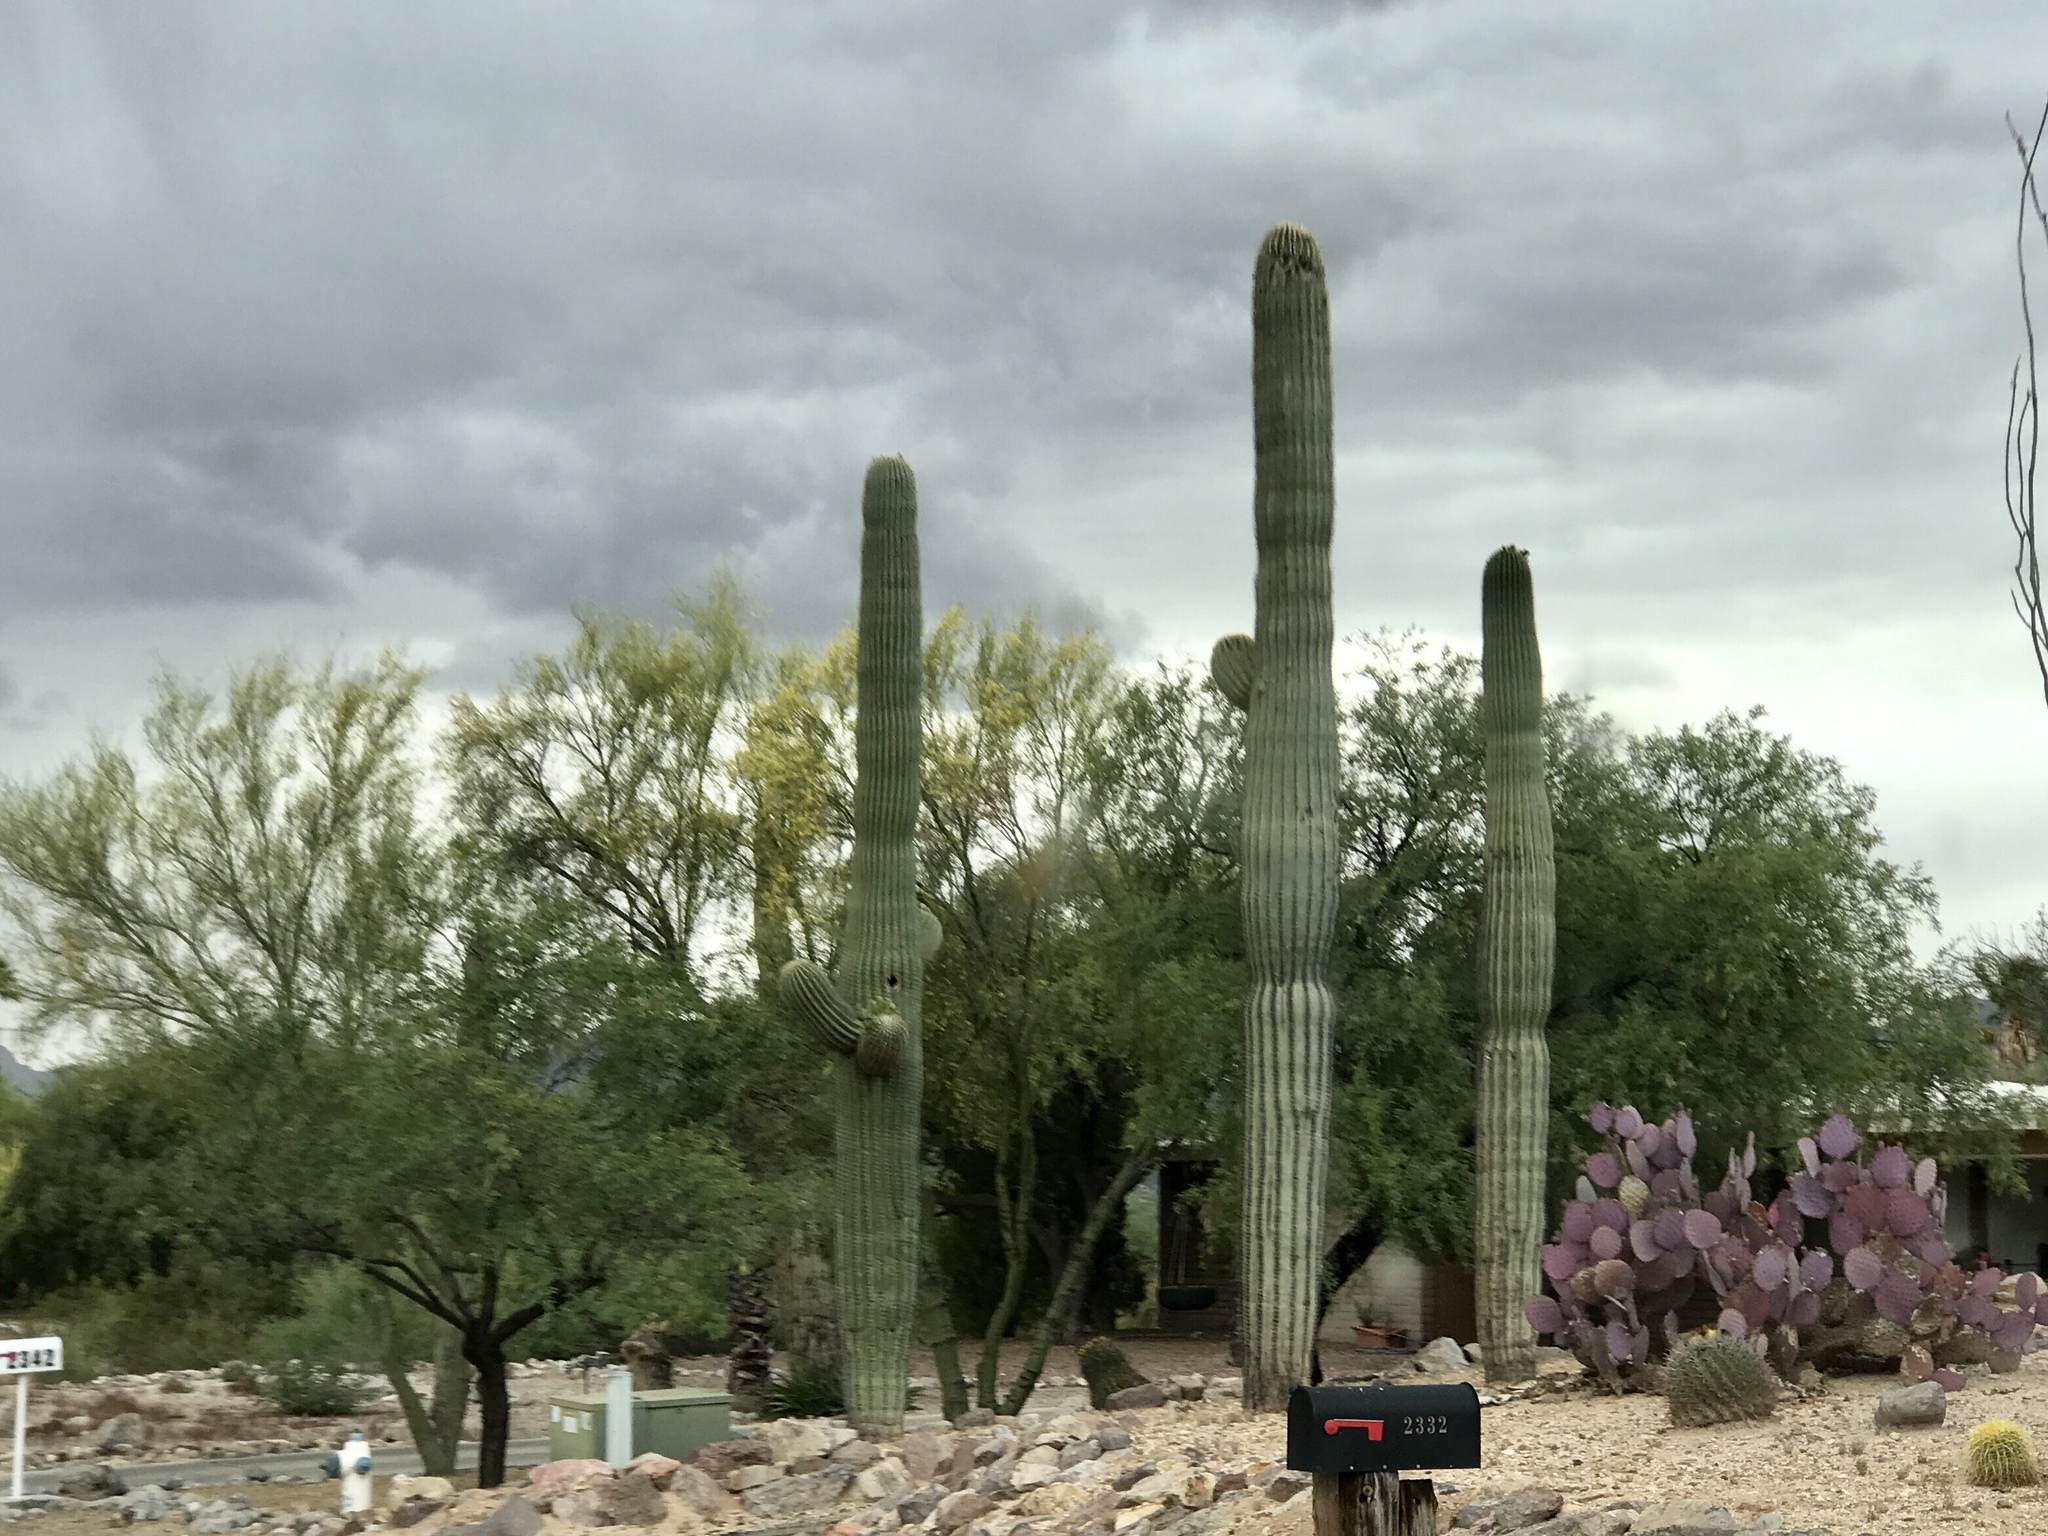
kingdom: Plantae
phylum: Tracheophyta
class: Magnoliopsida
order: Caryophyllales
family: Cactaceae
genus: Carnegiea
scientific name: Carnegiea gigantea
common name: Saguaro
